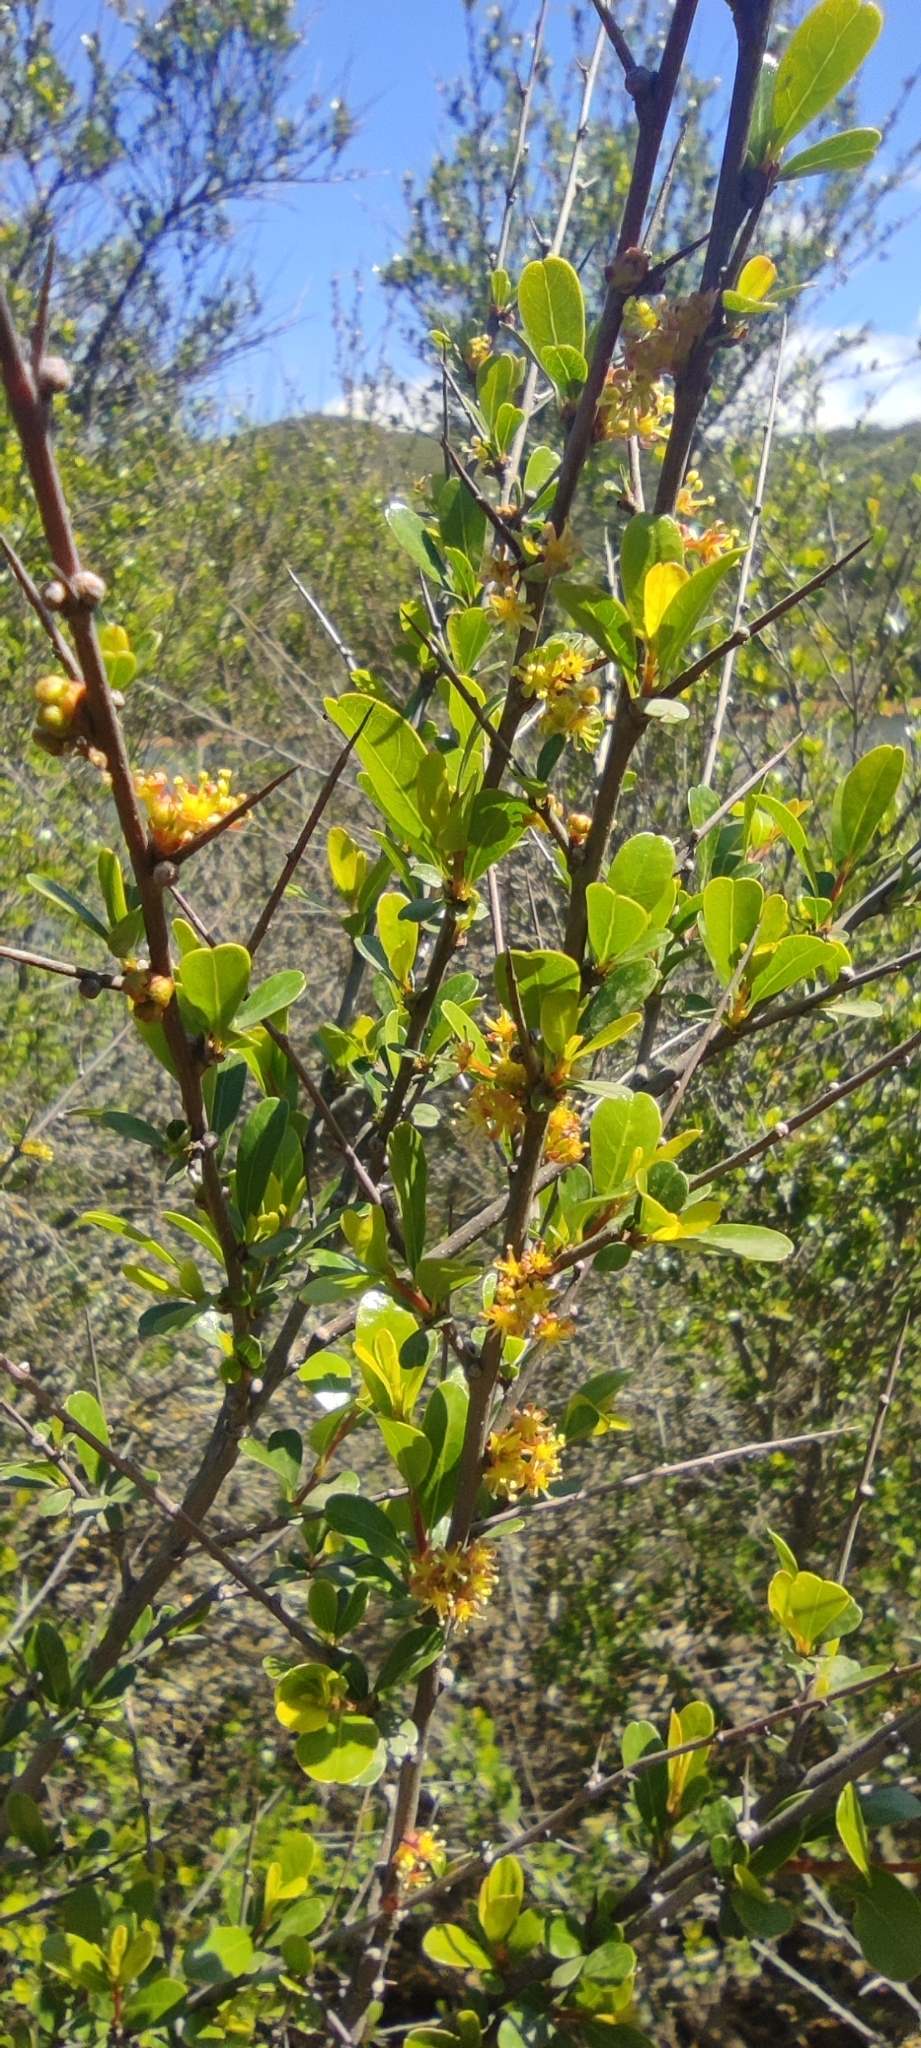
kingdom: Plantae
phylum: Tracheophyta
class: Magnoliopsida
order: Malpighiales
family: Phyllanthaceae
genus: Flueggea
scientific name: Flueggea tinctoria
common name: Tamujo
